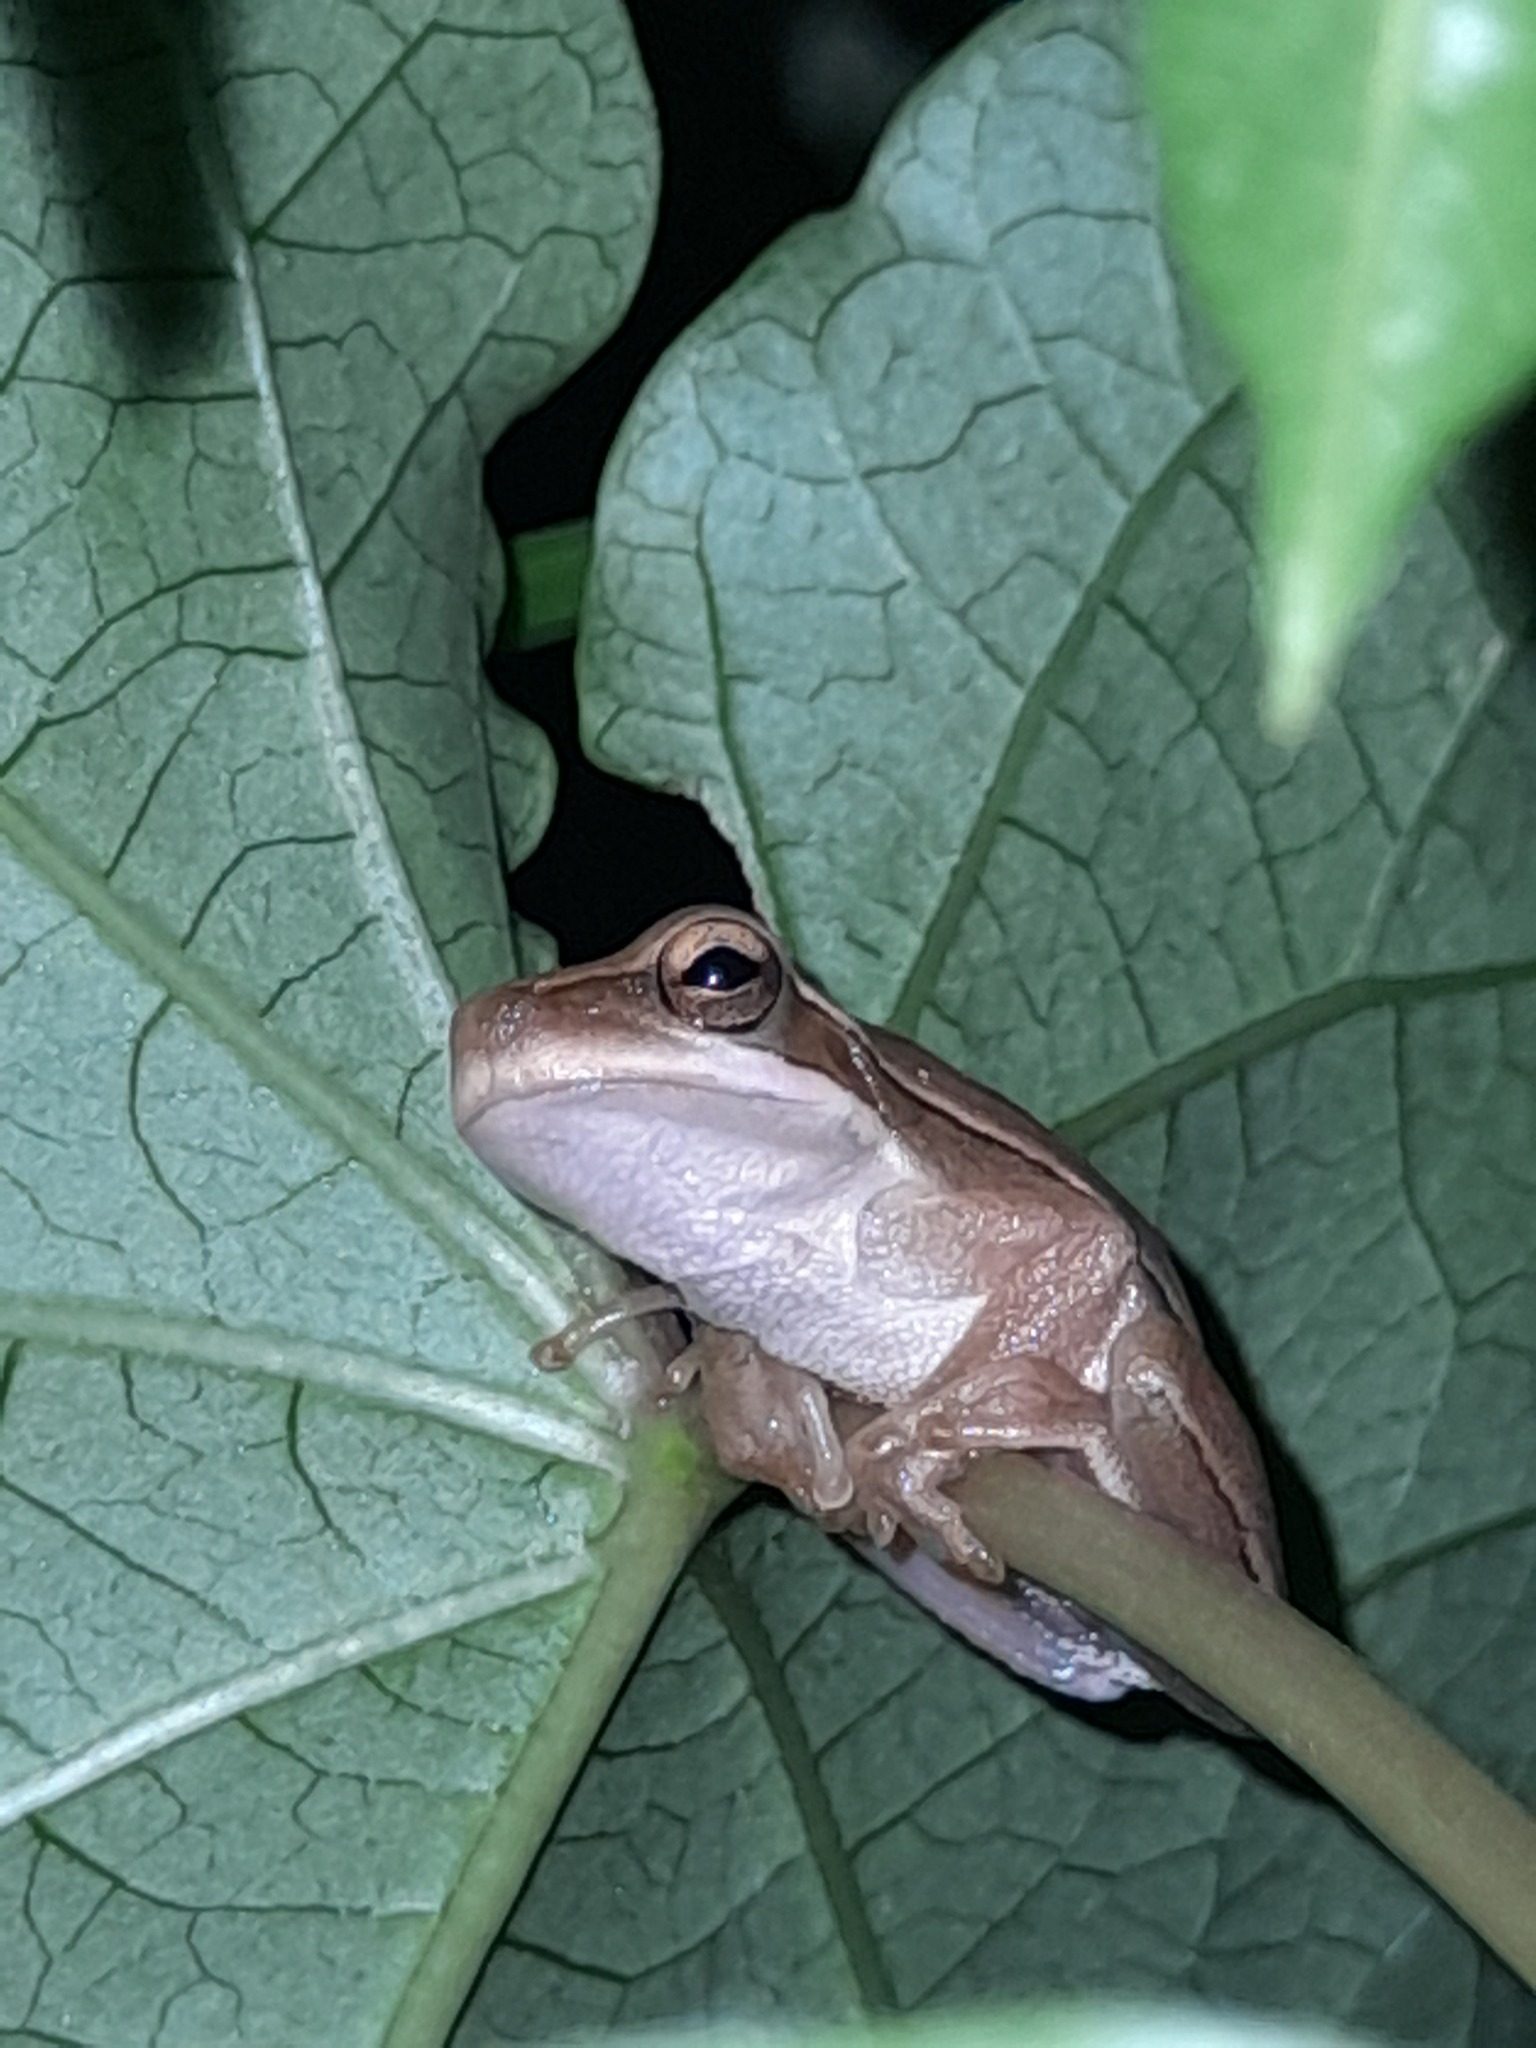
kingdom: Animalia
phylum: Chordata
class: Amphibia
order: Anura
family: Hylidae
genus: Boana
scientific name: Boana pulchella
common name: Montevideo treefrog
